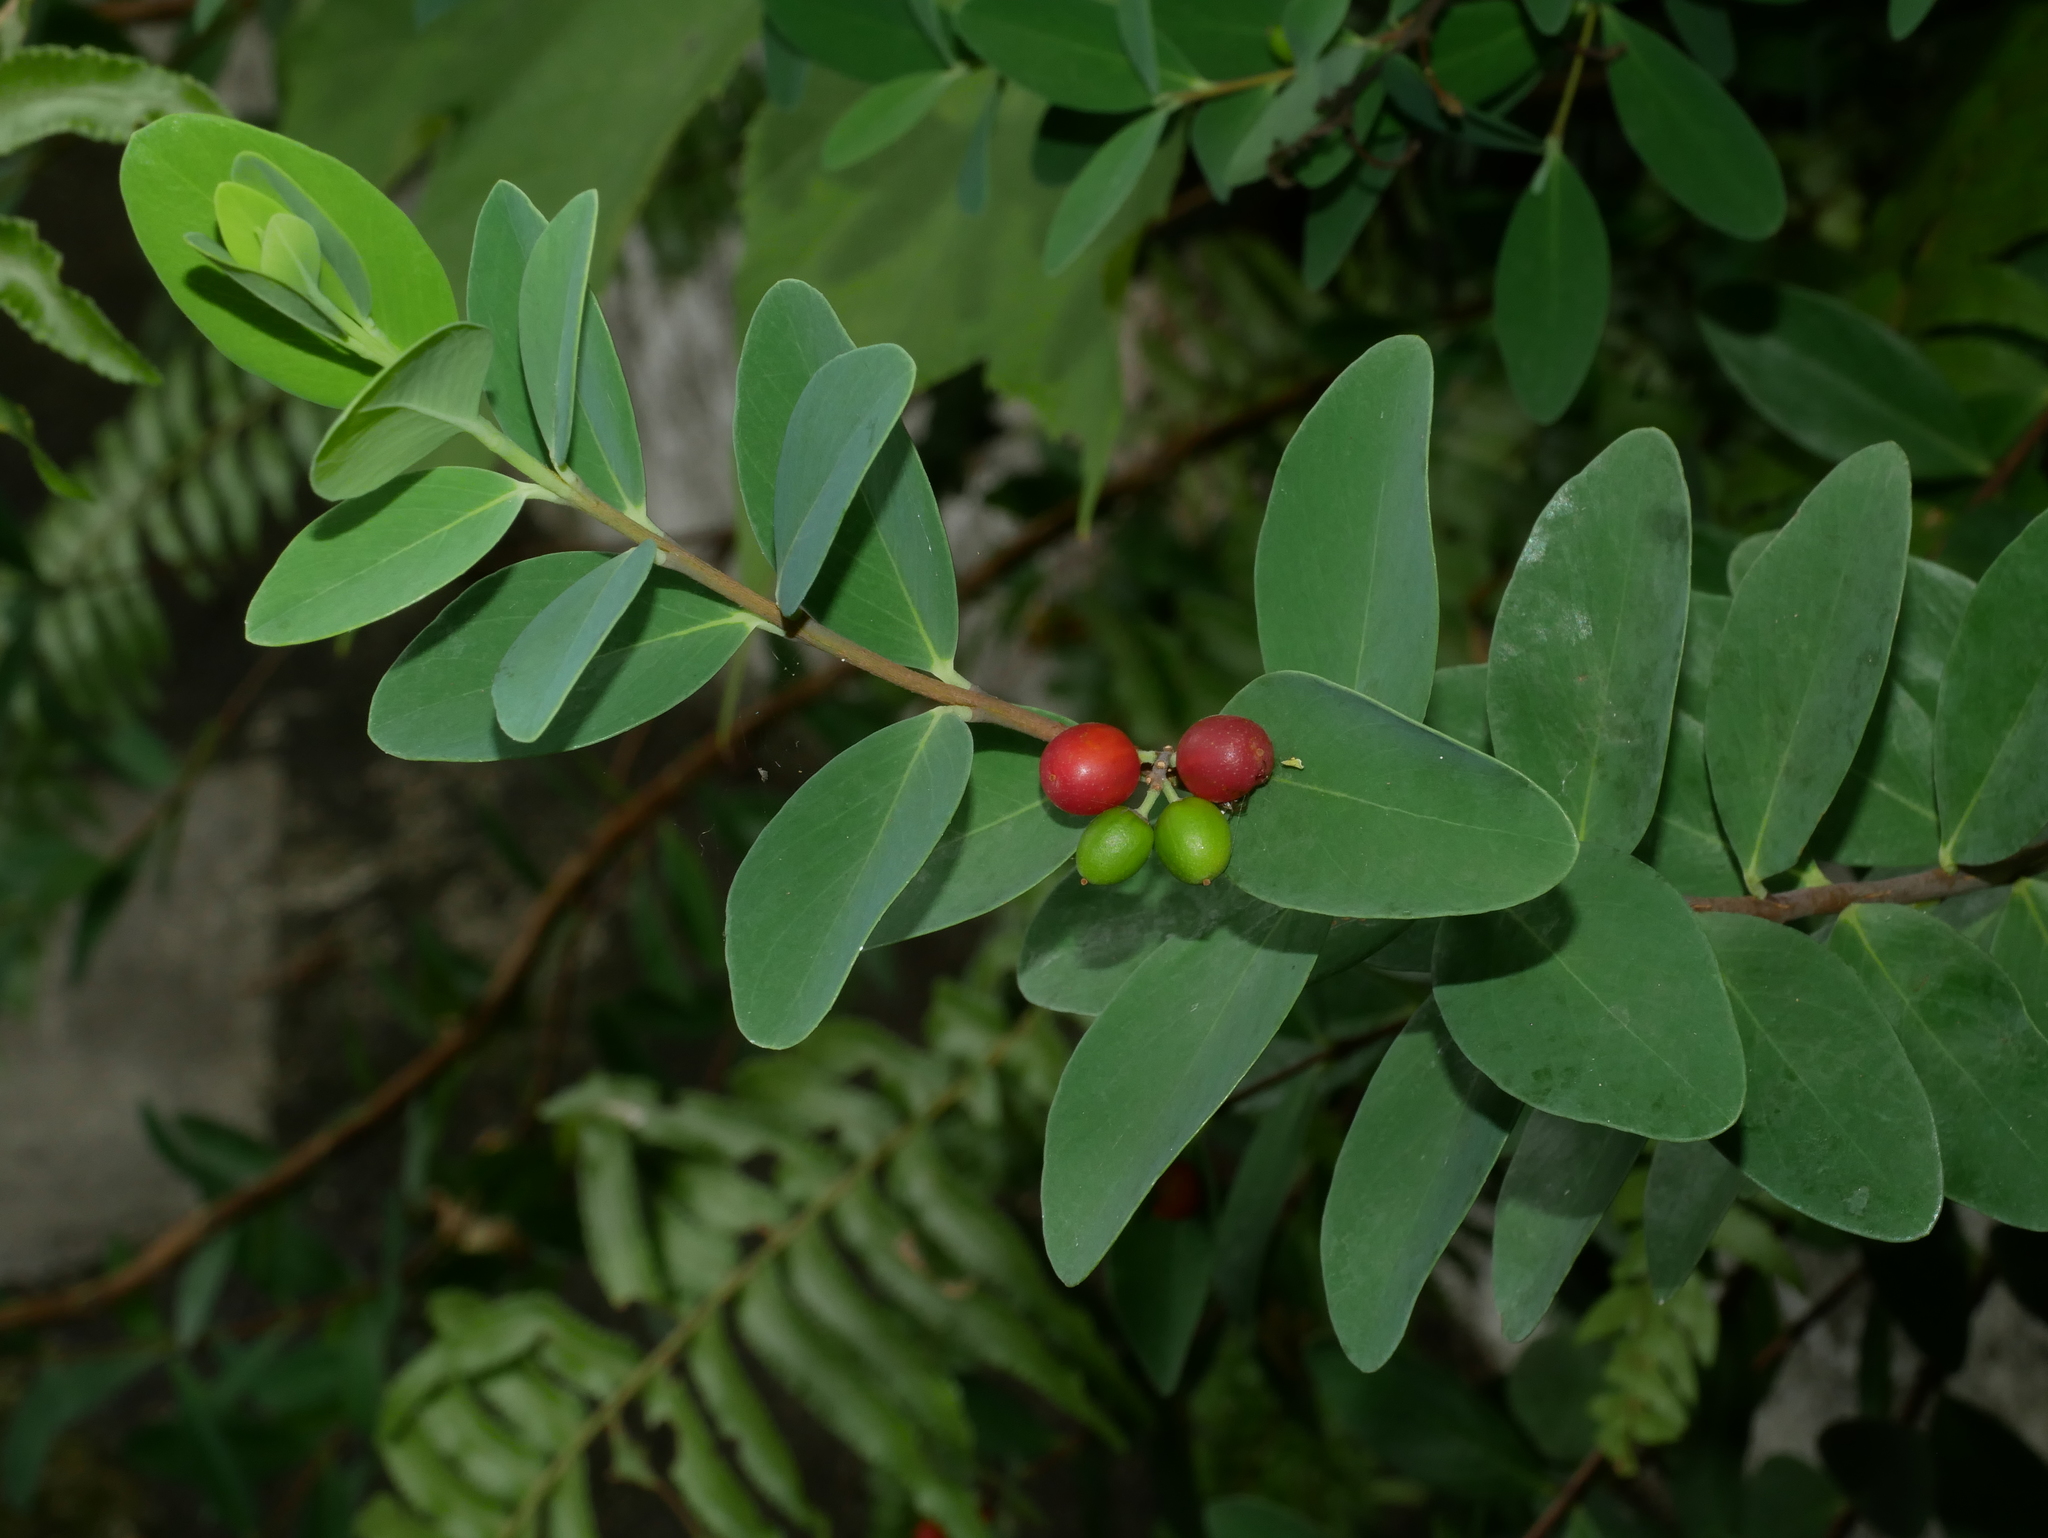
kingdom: Plantae
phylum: Tracheophyta
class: Magnoliopsida
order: Malvales
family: Thymelaeaceae
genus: Wikstroemia
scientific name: Wikstroemia indica
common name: Tiebush
